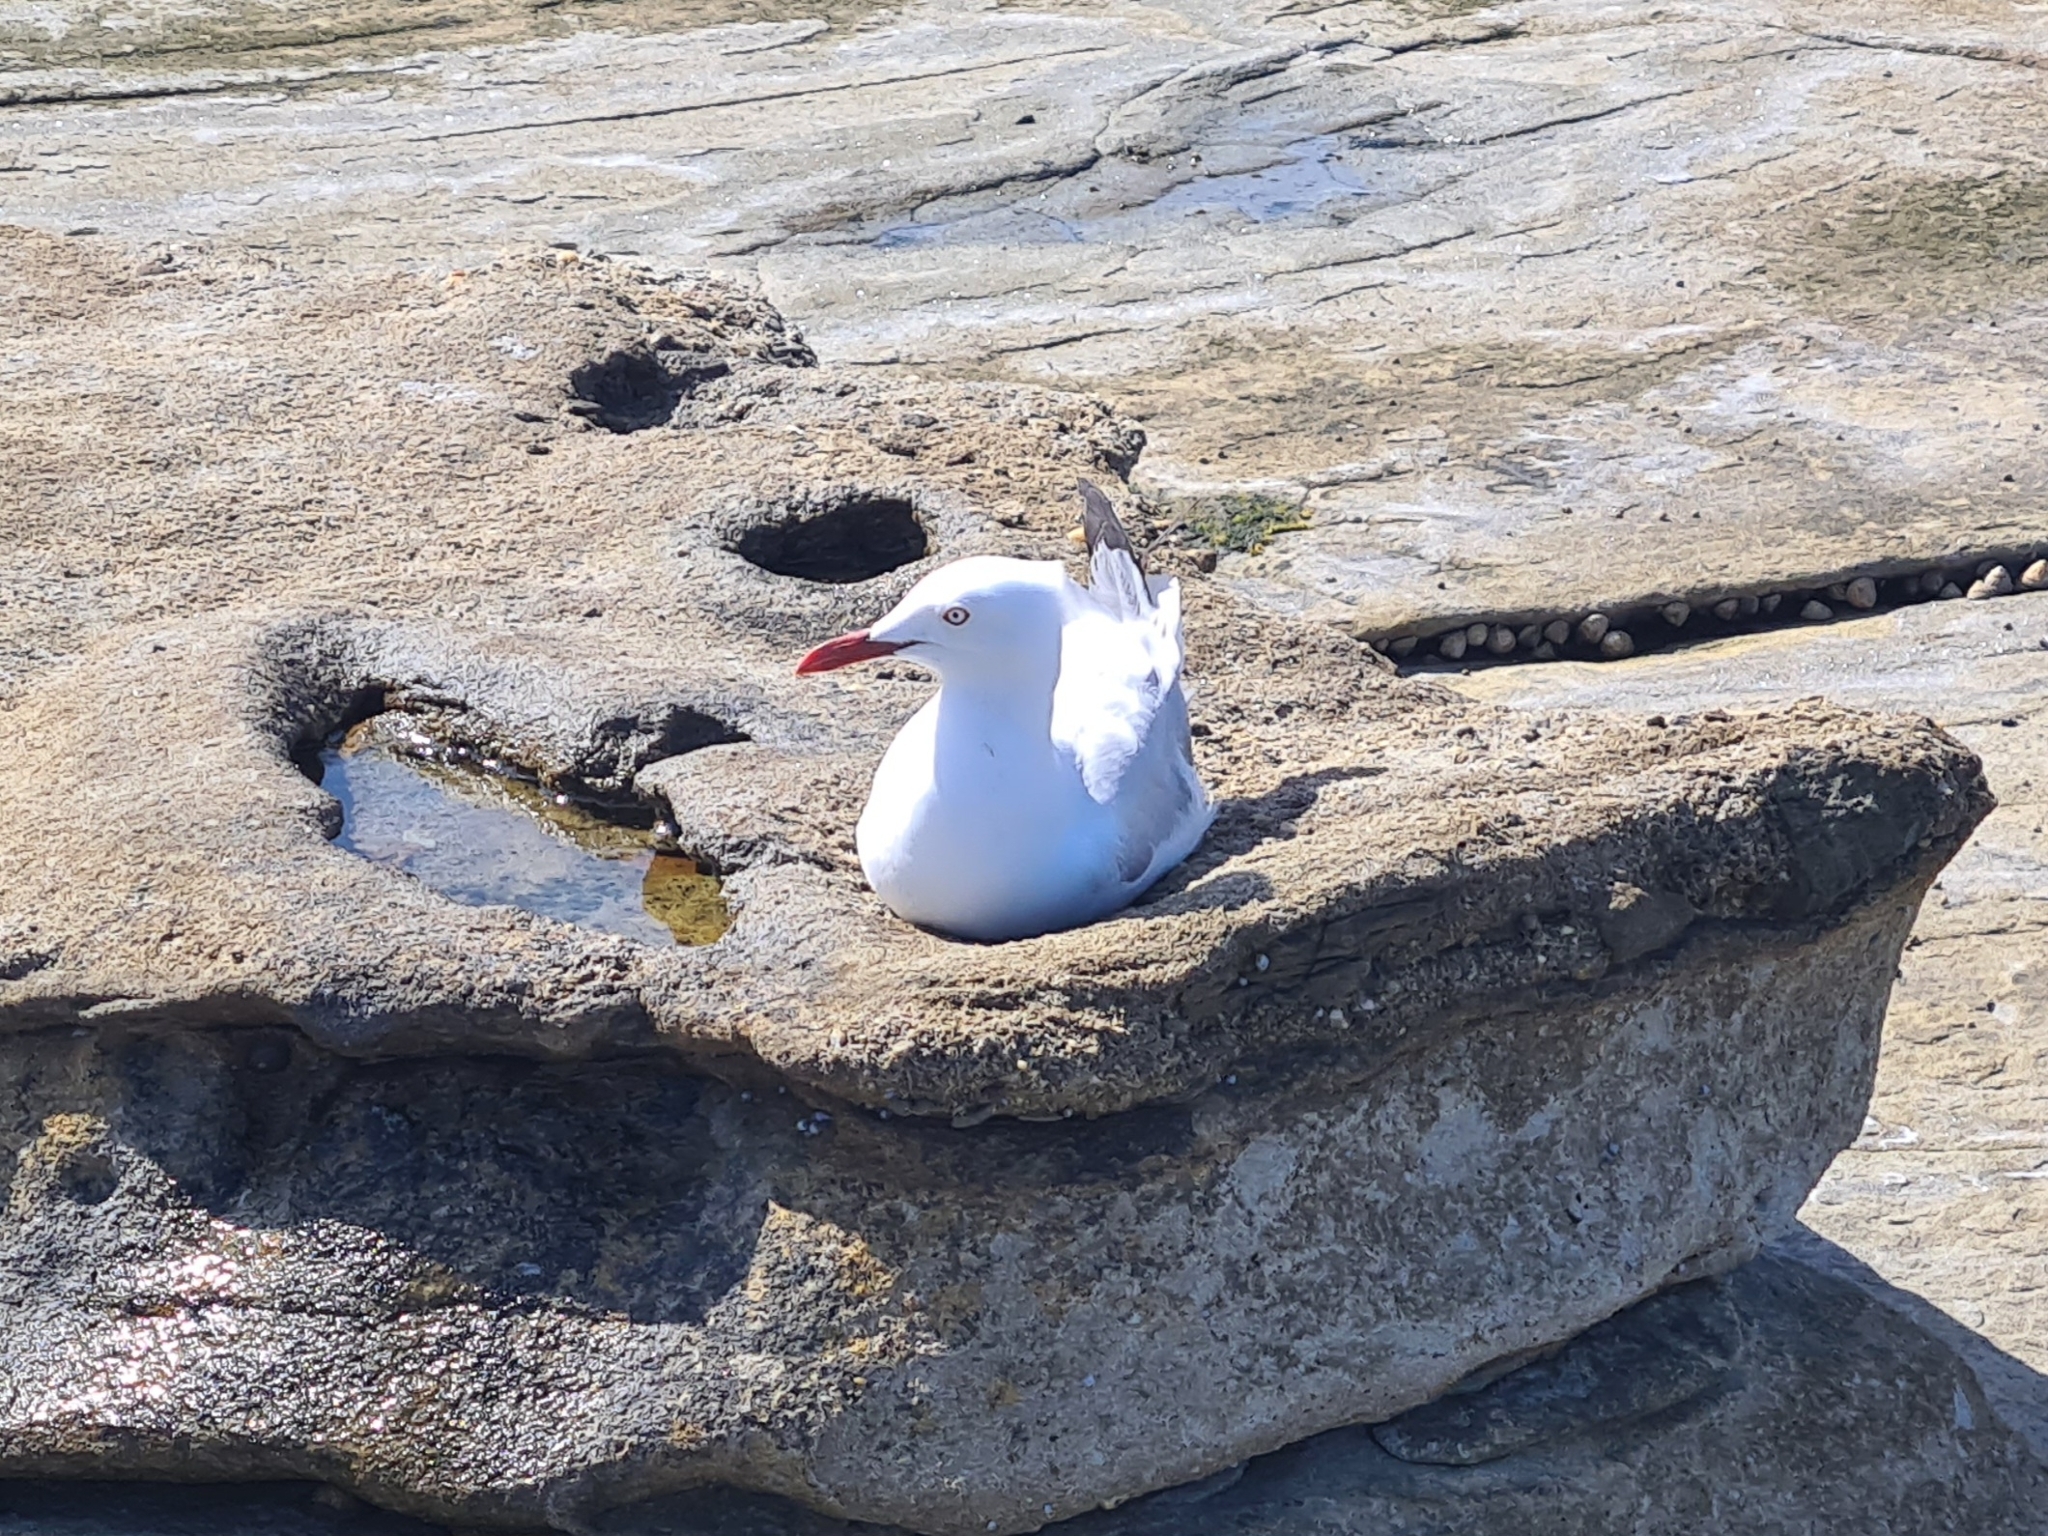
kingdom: Animalia
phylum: Chordata
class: Aves
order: Charadriiformes
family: Laridae
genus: Chroicocephalus
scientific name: Chroicocephalus novaehollandiae
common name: Silver gull
